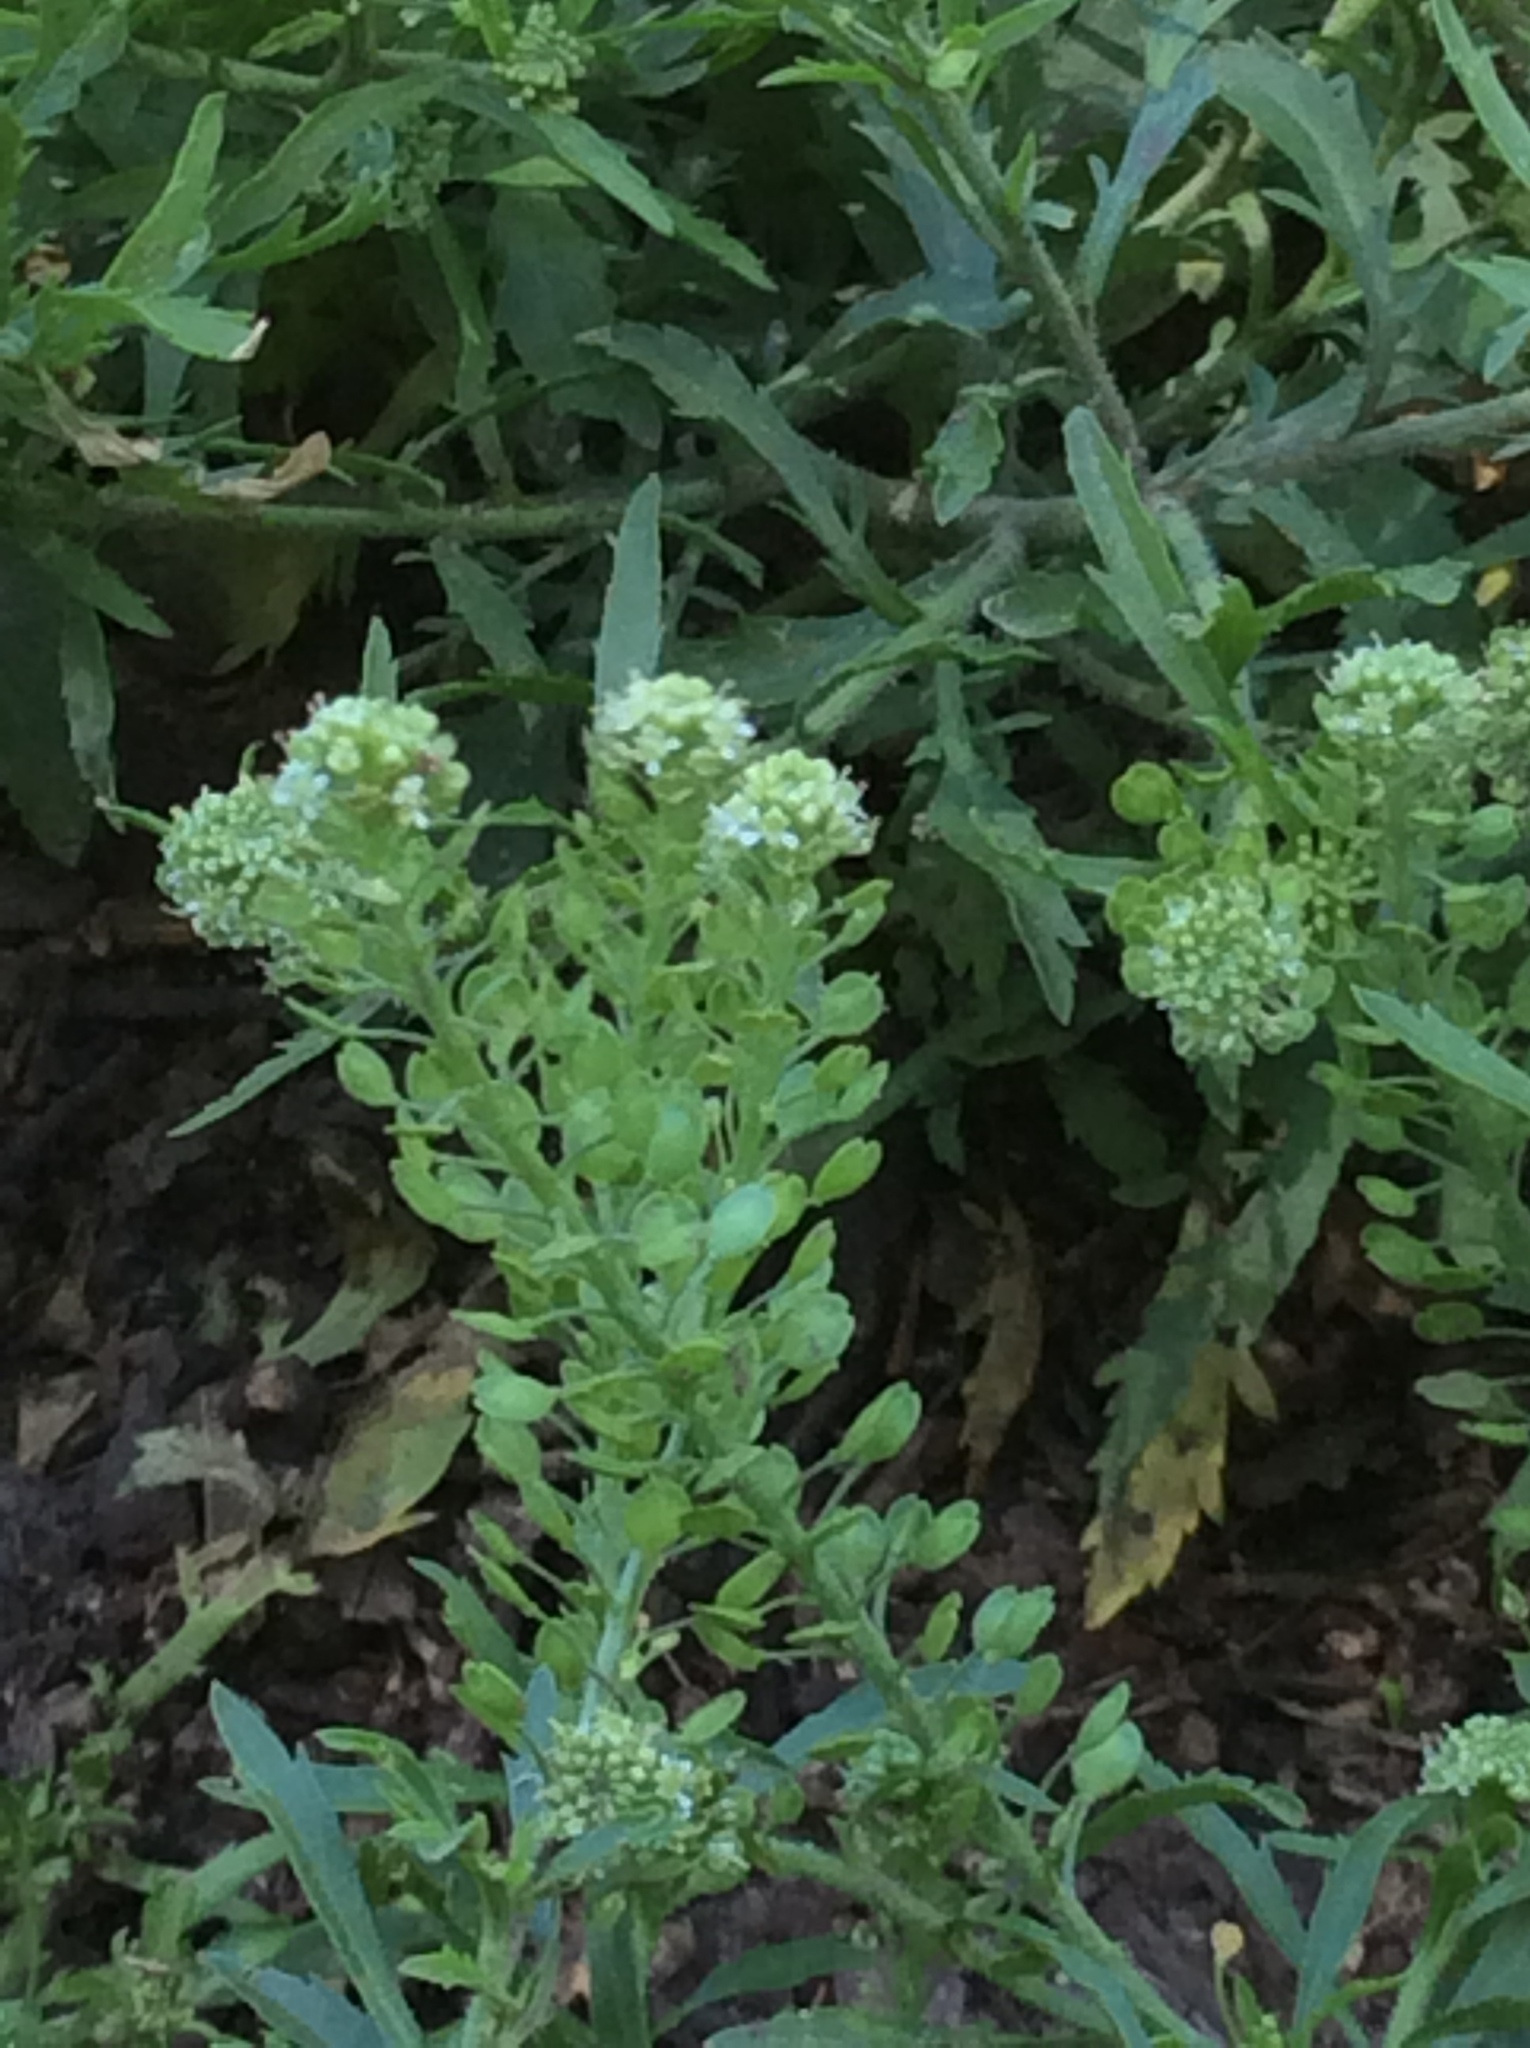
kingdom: Plantae
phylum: Tracheophyta
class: Magnoliopsida
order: Brassicales
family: Brassicaceae
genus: Lepidium
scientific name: Lepidium virginicum
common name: Least pepperwort
